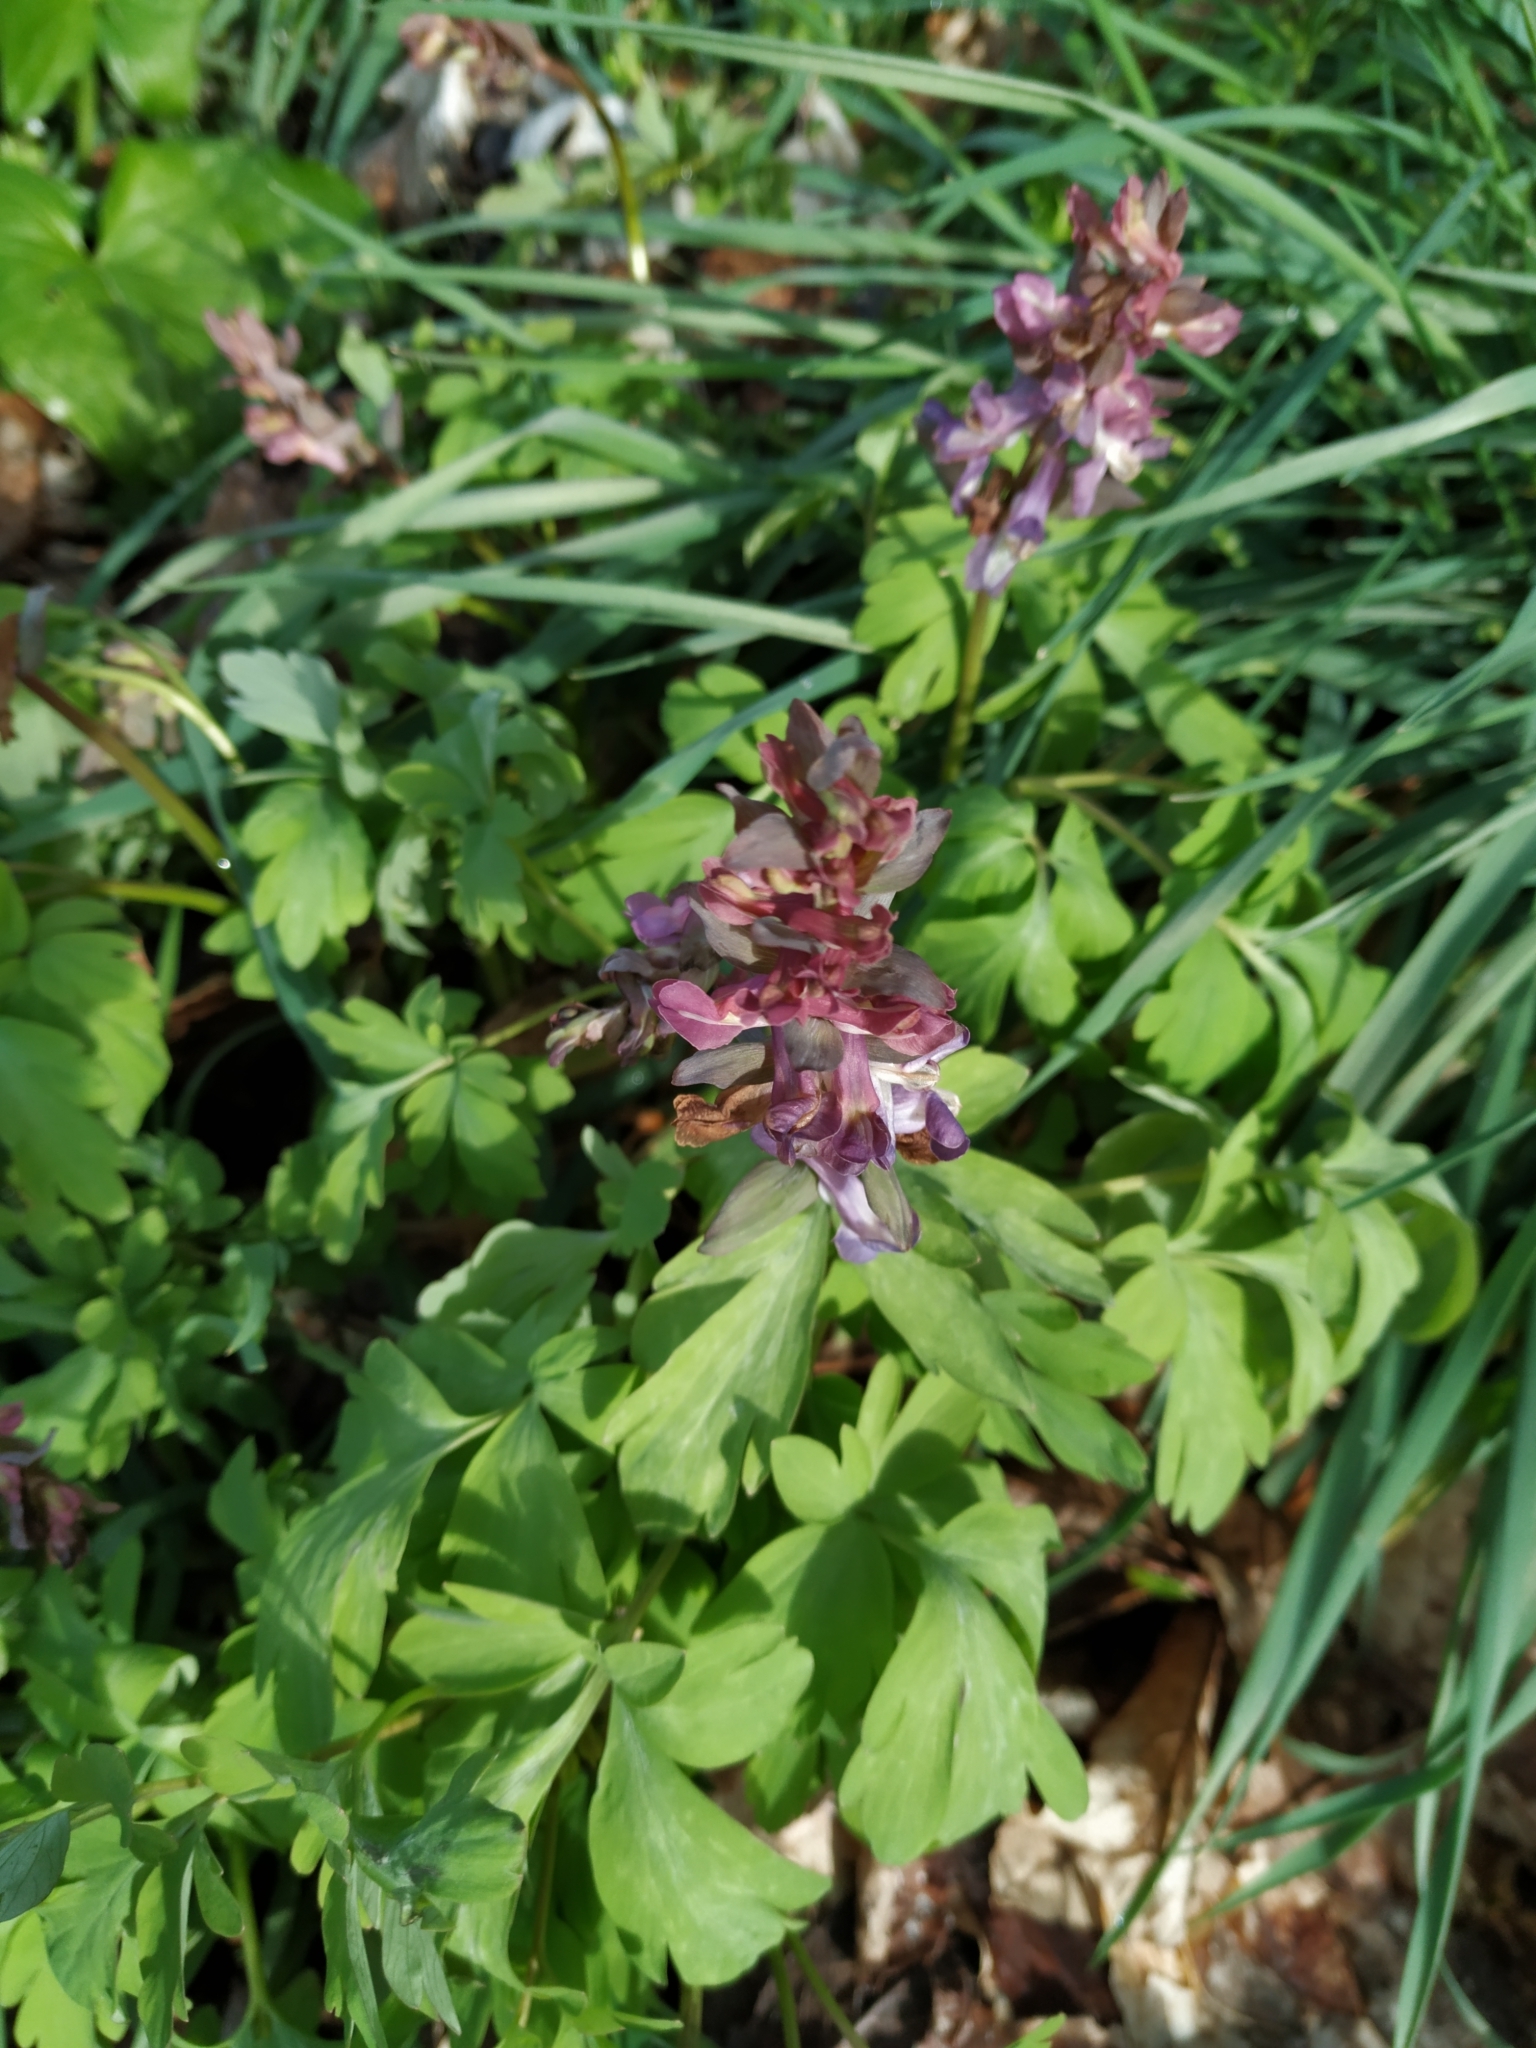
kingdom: Plantae
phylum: Tracheophyta
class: Magnoliopsida
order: Ranunculales
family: Papaveraceae
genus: Corydalis
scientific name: Corydalis cava
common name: Hollowroot
